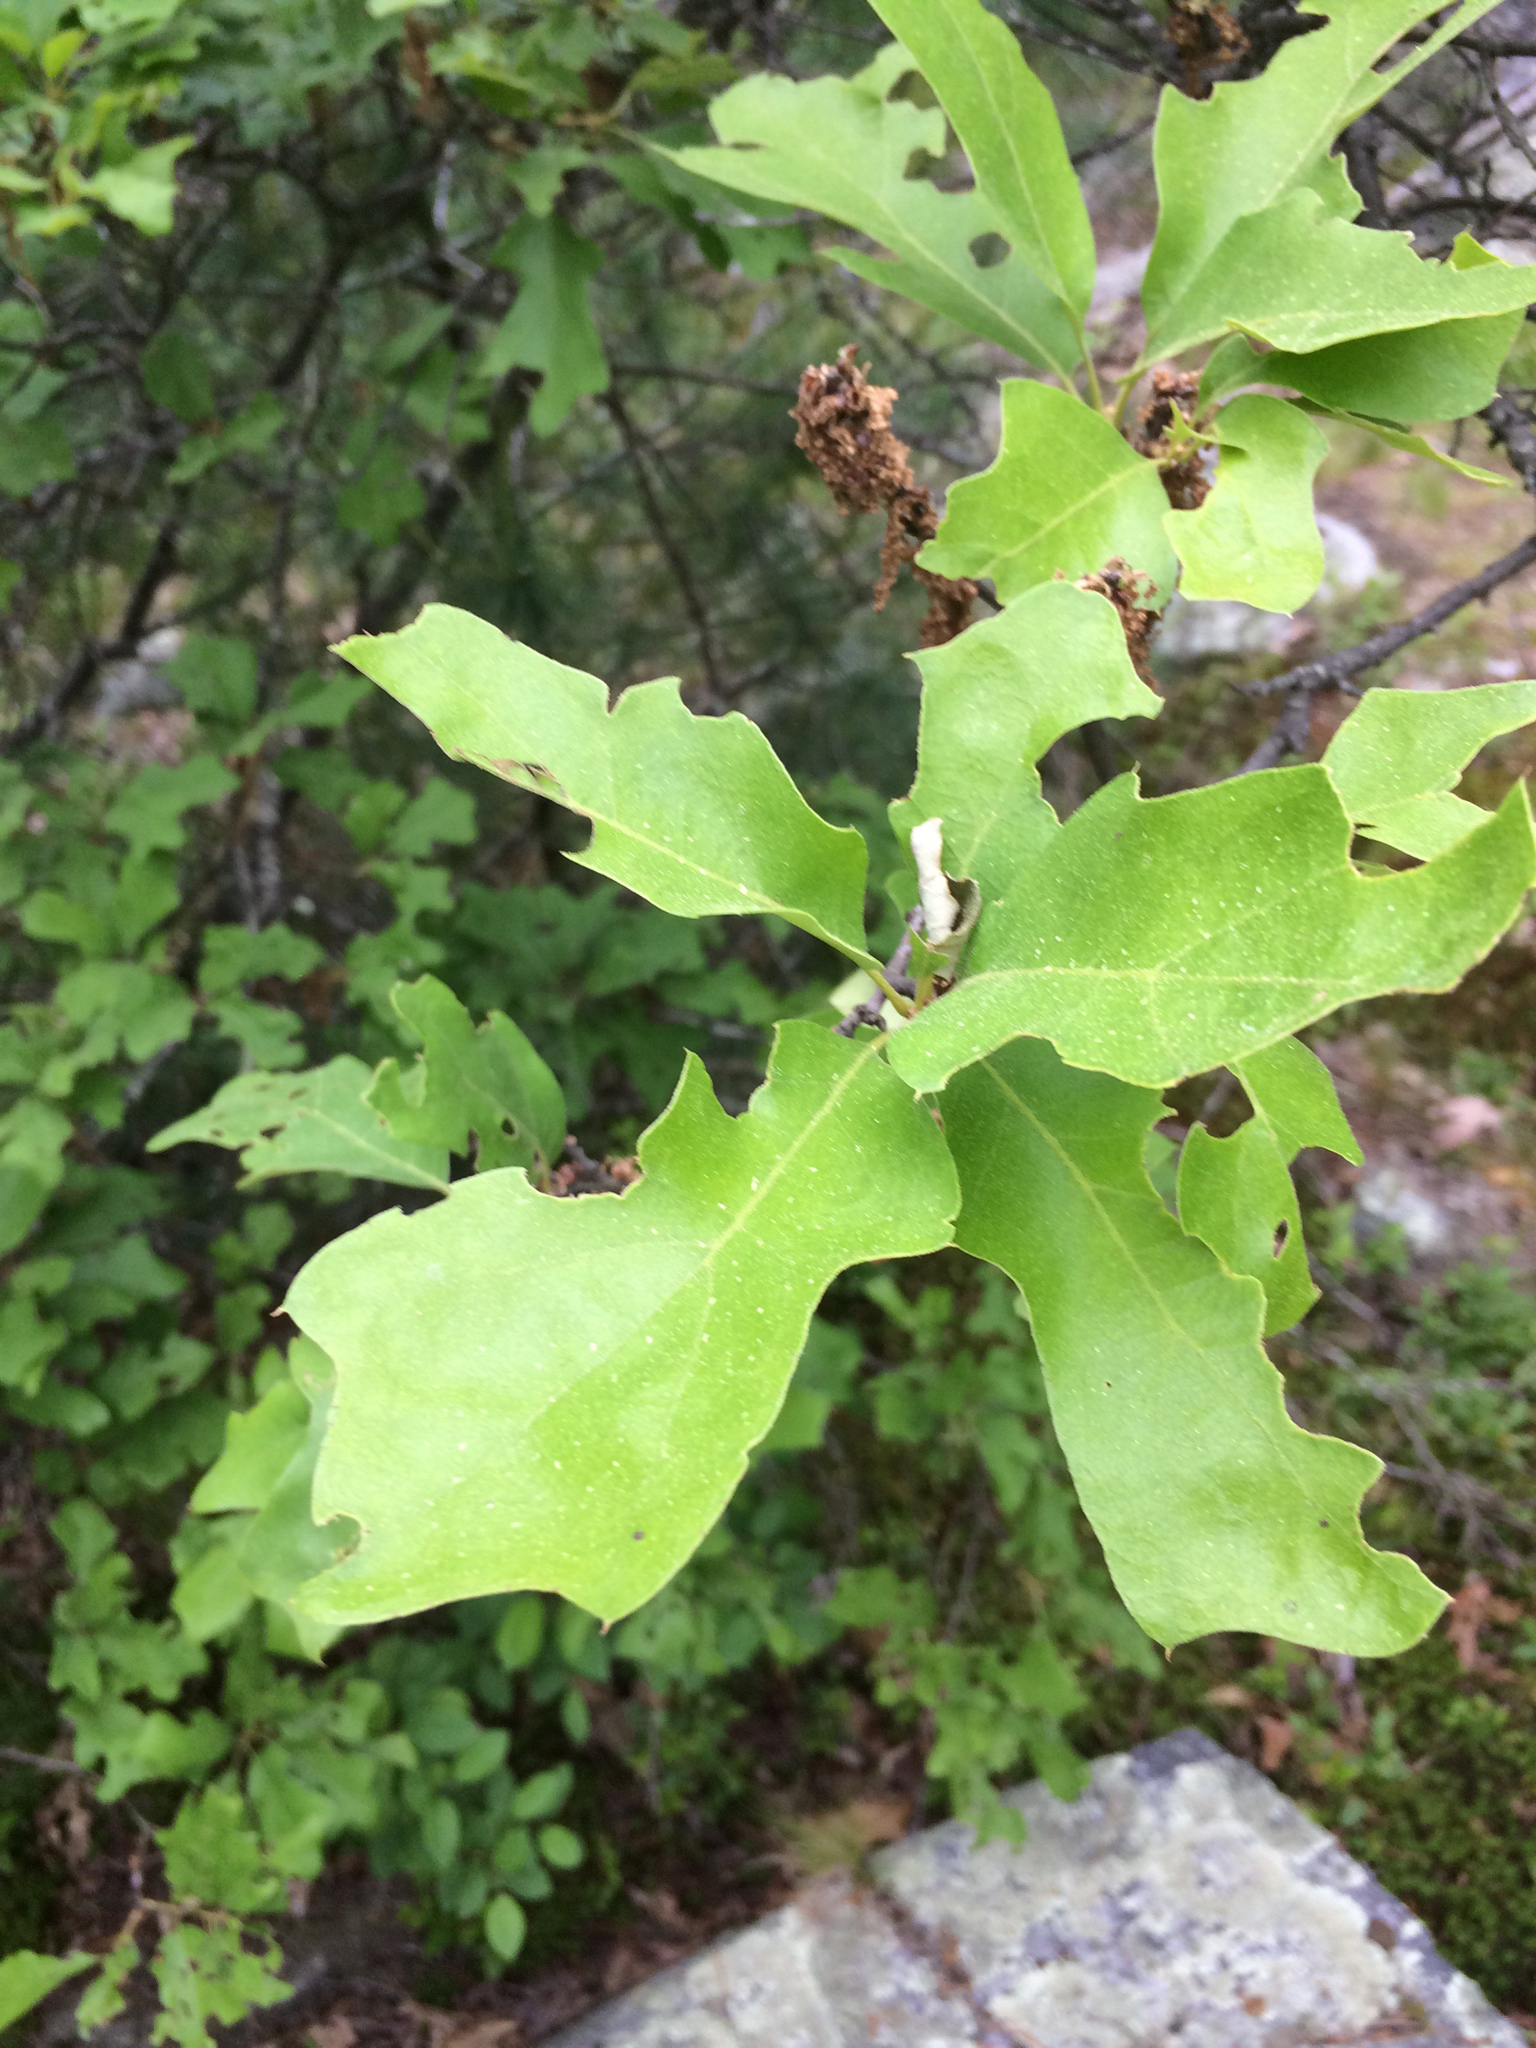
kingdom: Plantae
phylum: Tracheophyta
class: Magnoliopsida
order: Fagales
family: Fagaceae
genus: Quercus
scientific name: Quercus ilicifolia
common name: Bear oak
